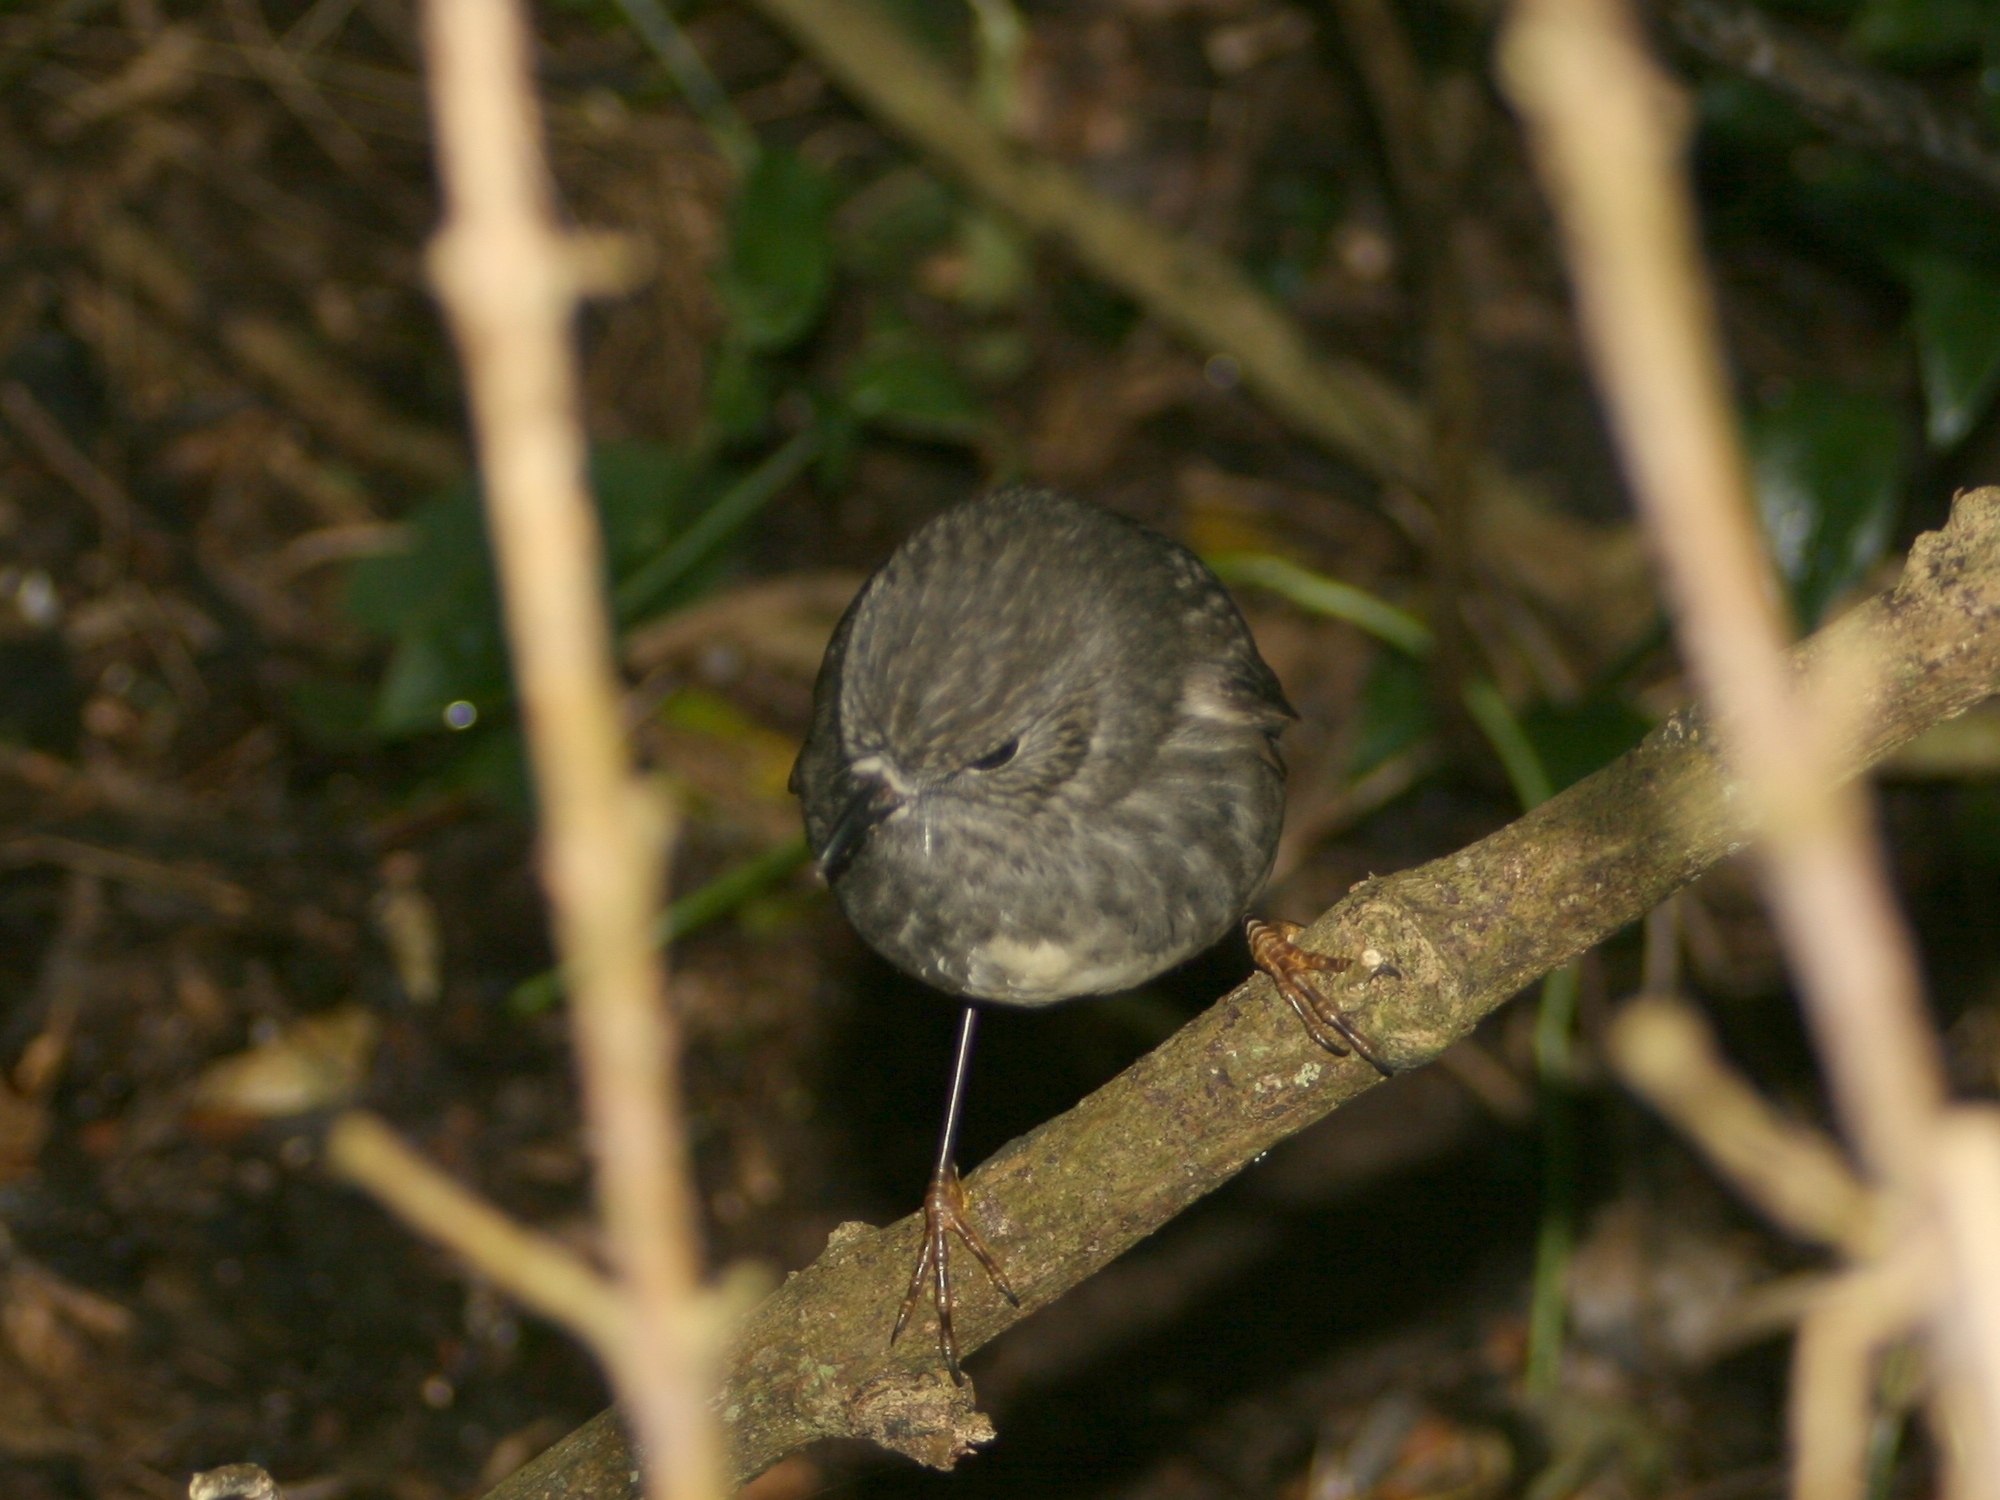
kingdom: Animalia
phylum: Chordata
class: Aves
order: Passeriformes
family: Petroicidae
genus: Petroica
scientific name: Petroica australis
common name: New zealand robin
